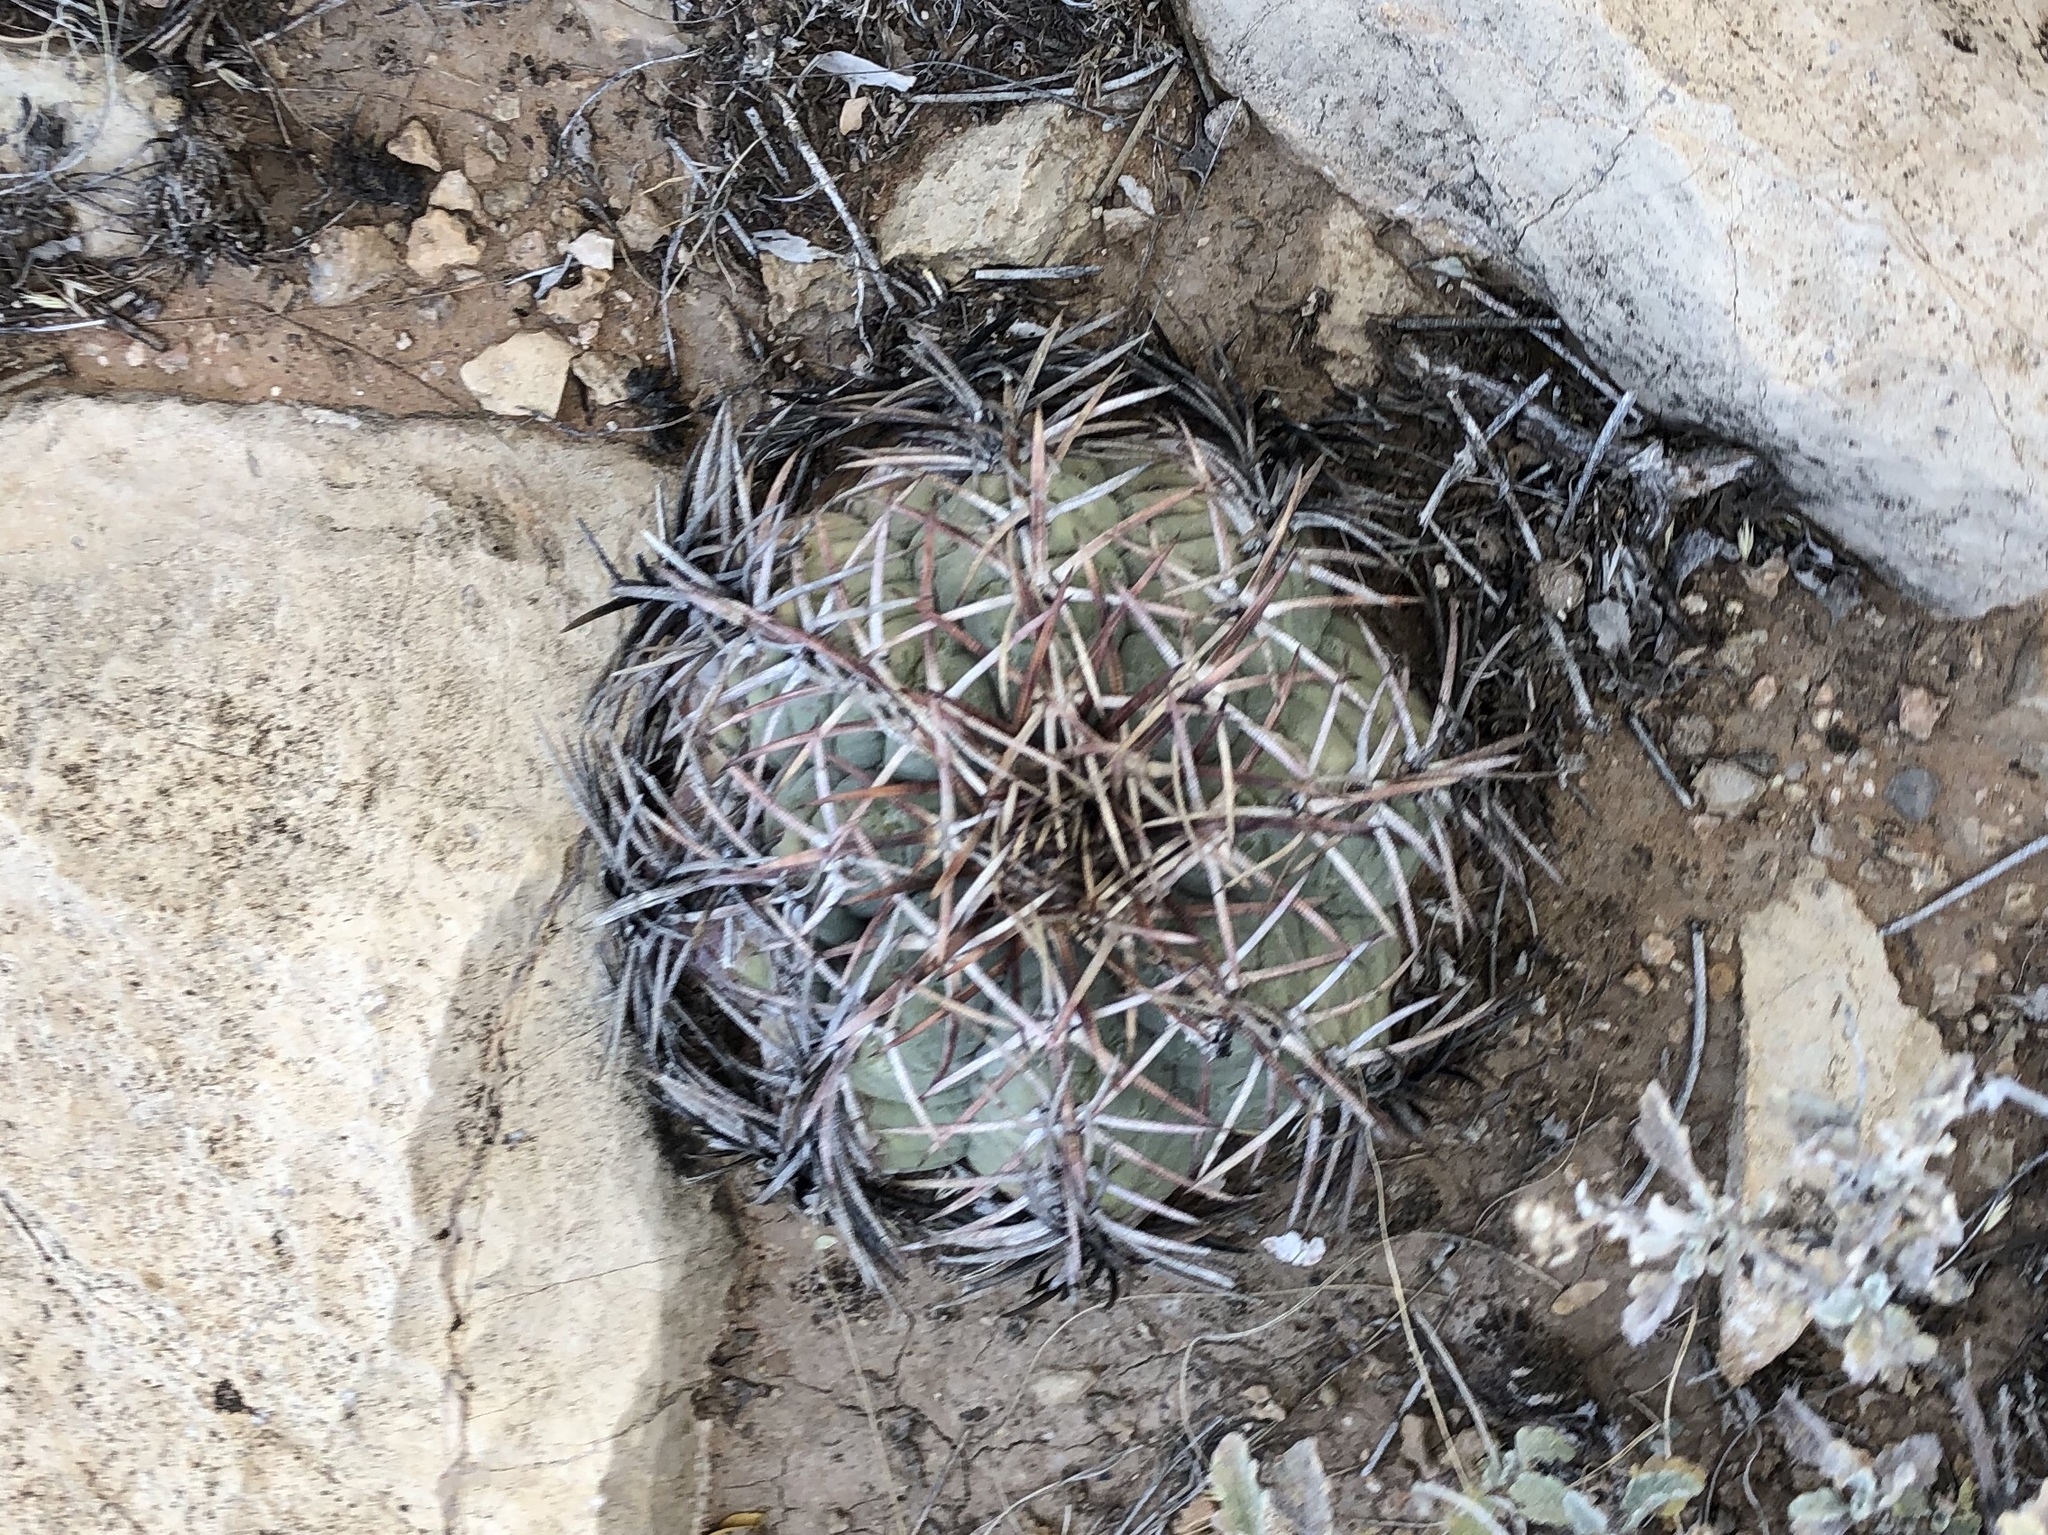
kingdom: Plantae
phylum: Tracheophyta
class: Magnoliopsida
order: Caryophyllales
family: Cactaceae
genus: Echinocactus
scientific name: Echinocactus horizonthalonius
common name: Devilshead
